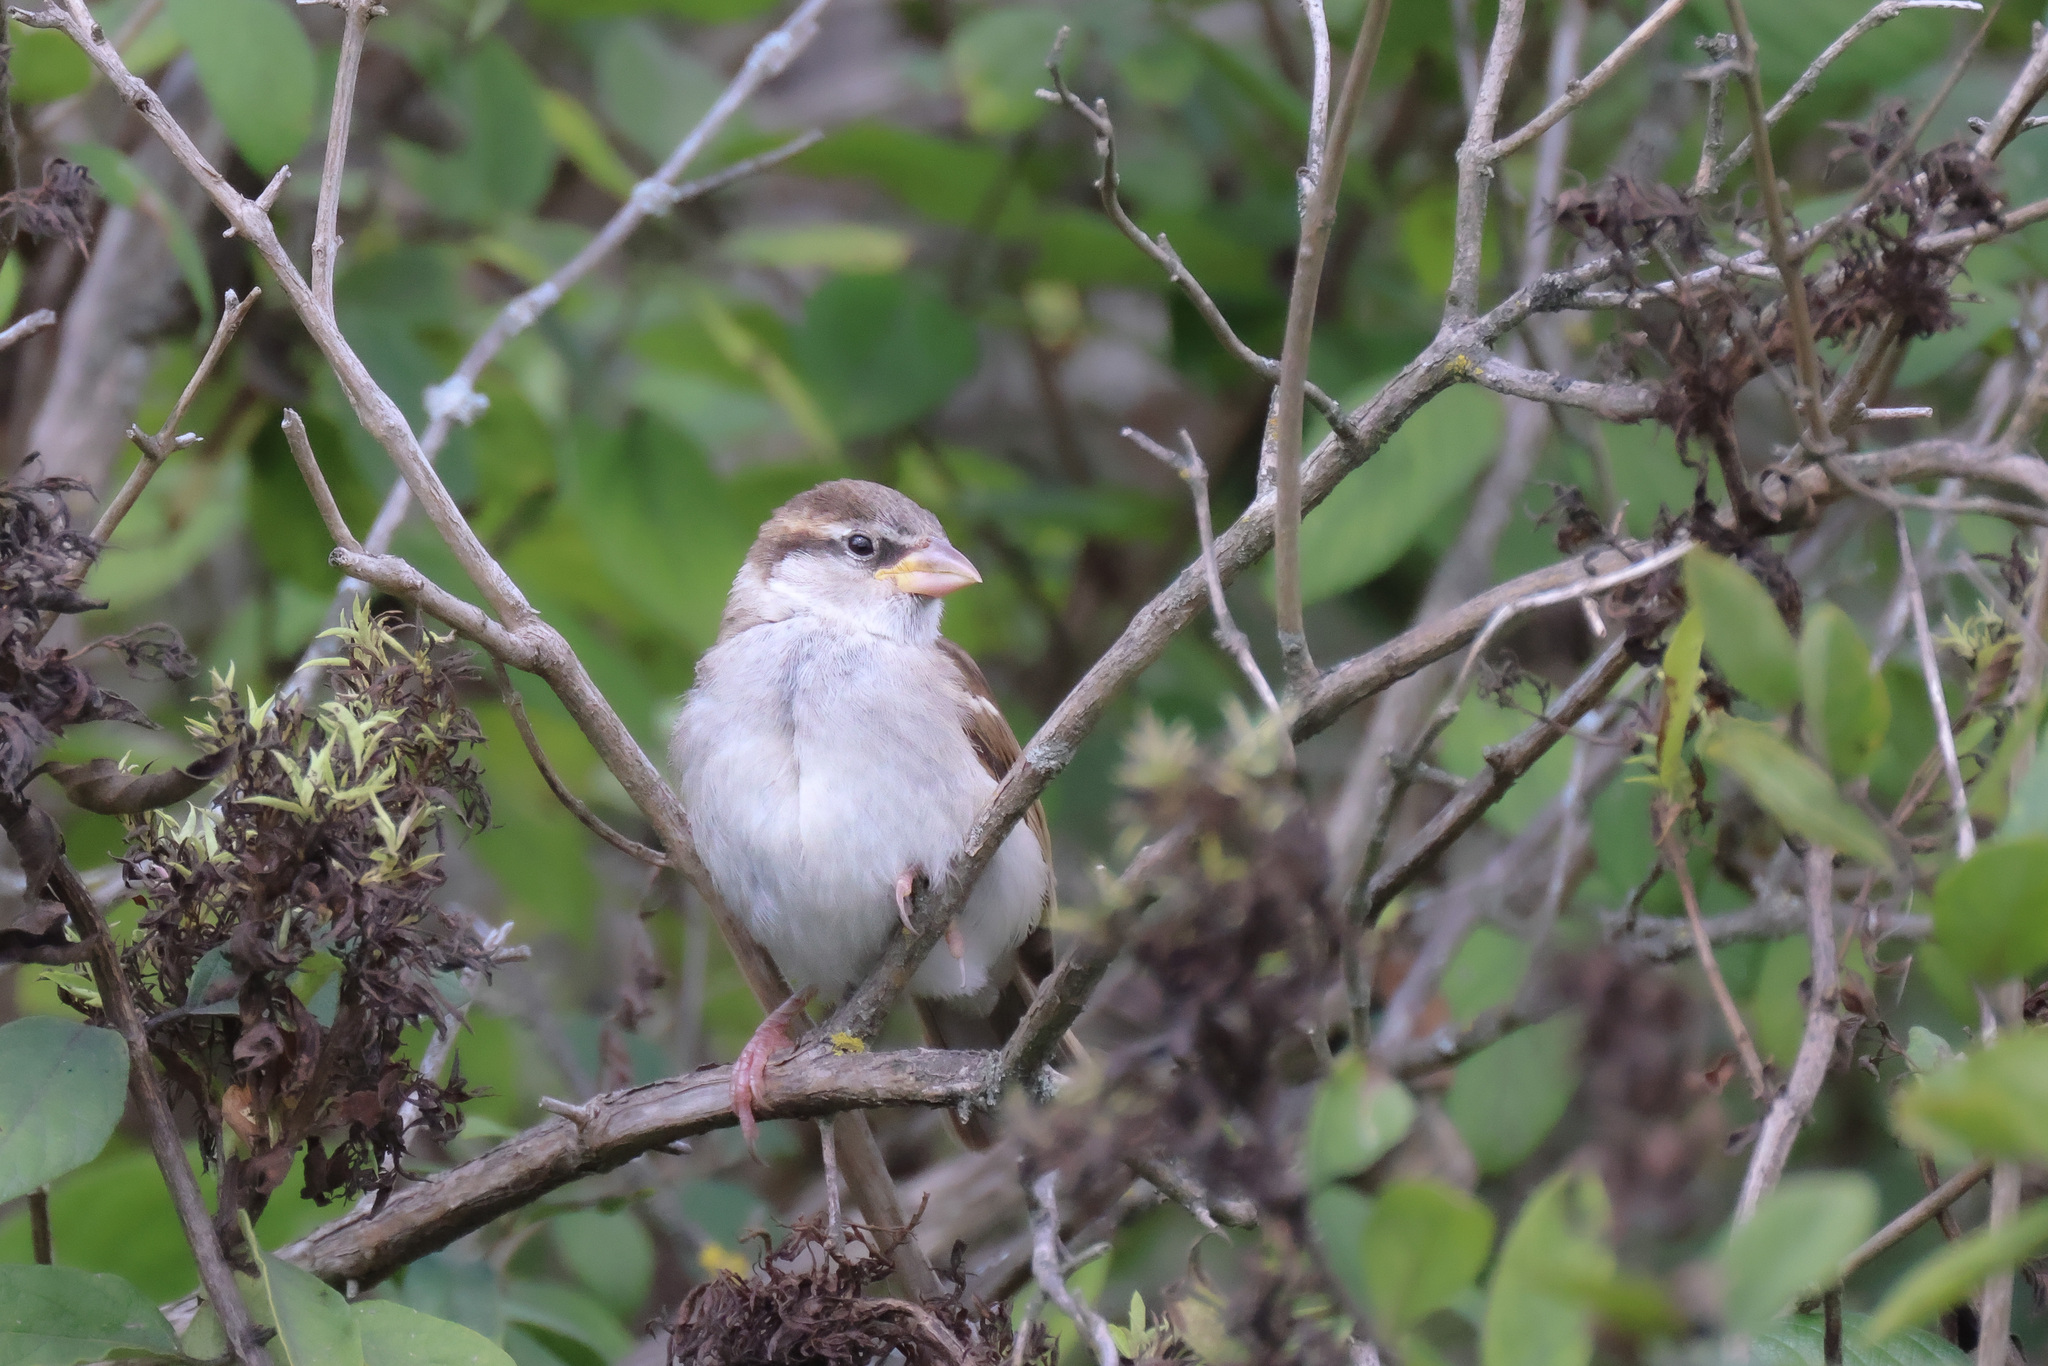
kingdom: Animalia
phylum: Chordata
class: Aves
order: Passeriformes
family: Passeridae
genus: Passer
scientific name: Passer domesticus
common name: House sparrow
